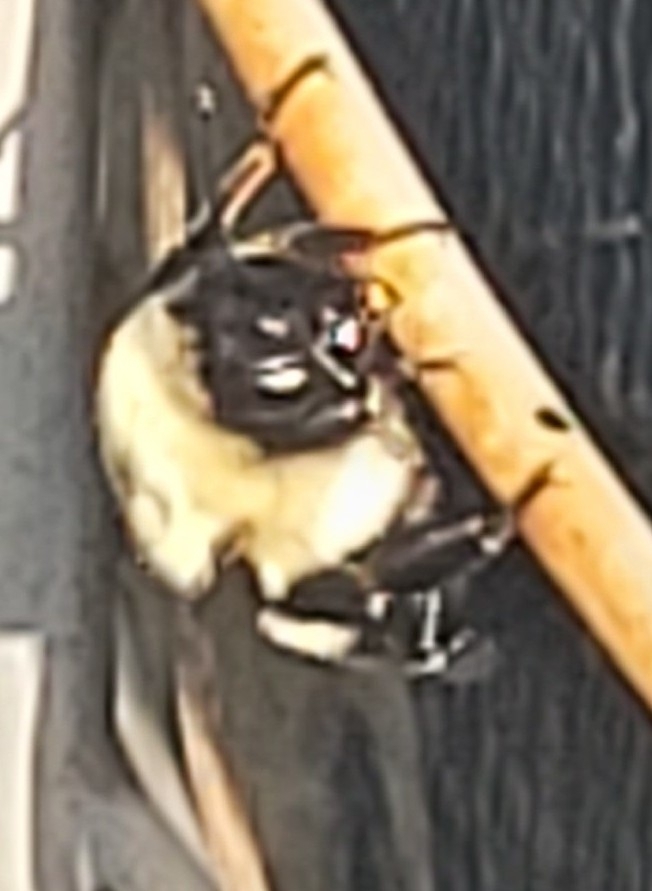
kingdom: Animalia
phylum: Arthropoda
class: Insecta
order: Hymenoptera
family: Apidae
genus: Bombus
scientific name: Bombus impatiens
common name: Common eastern bumble bee
